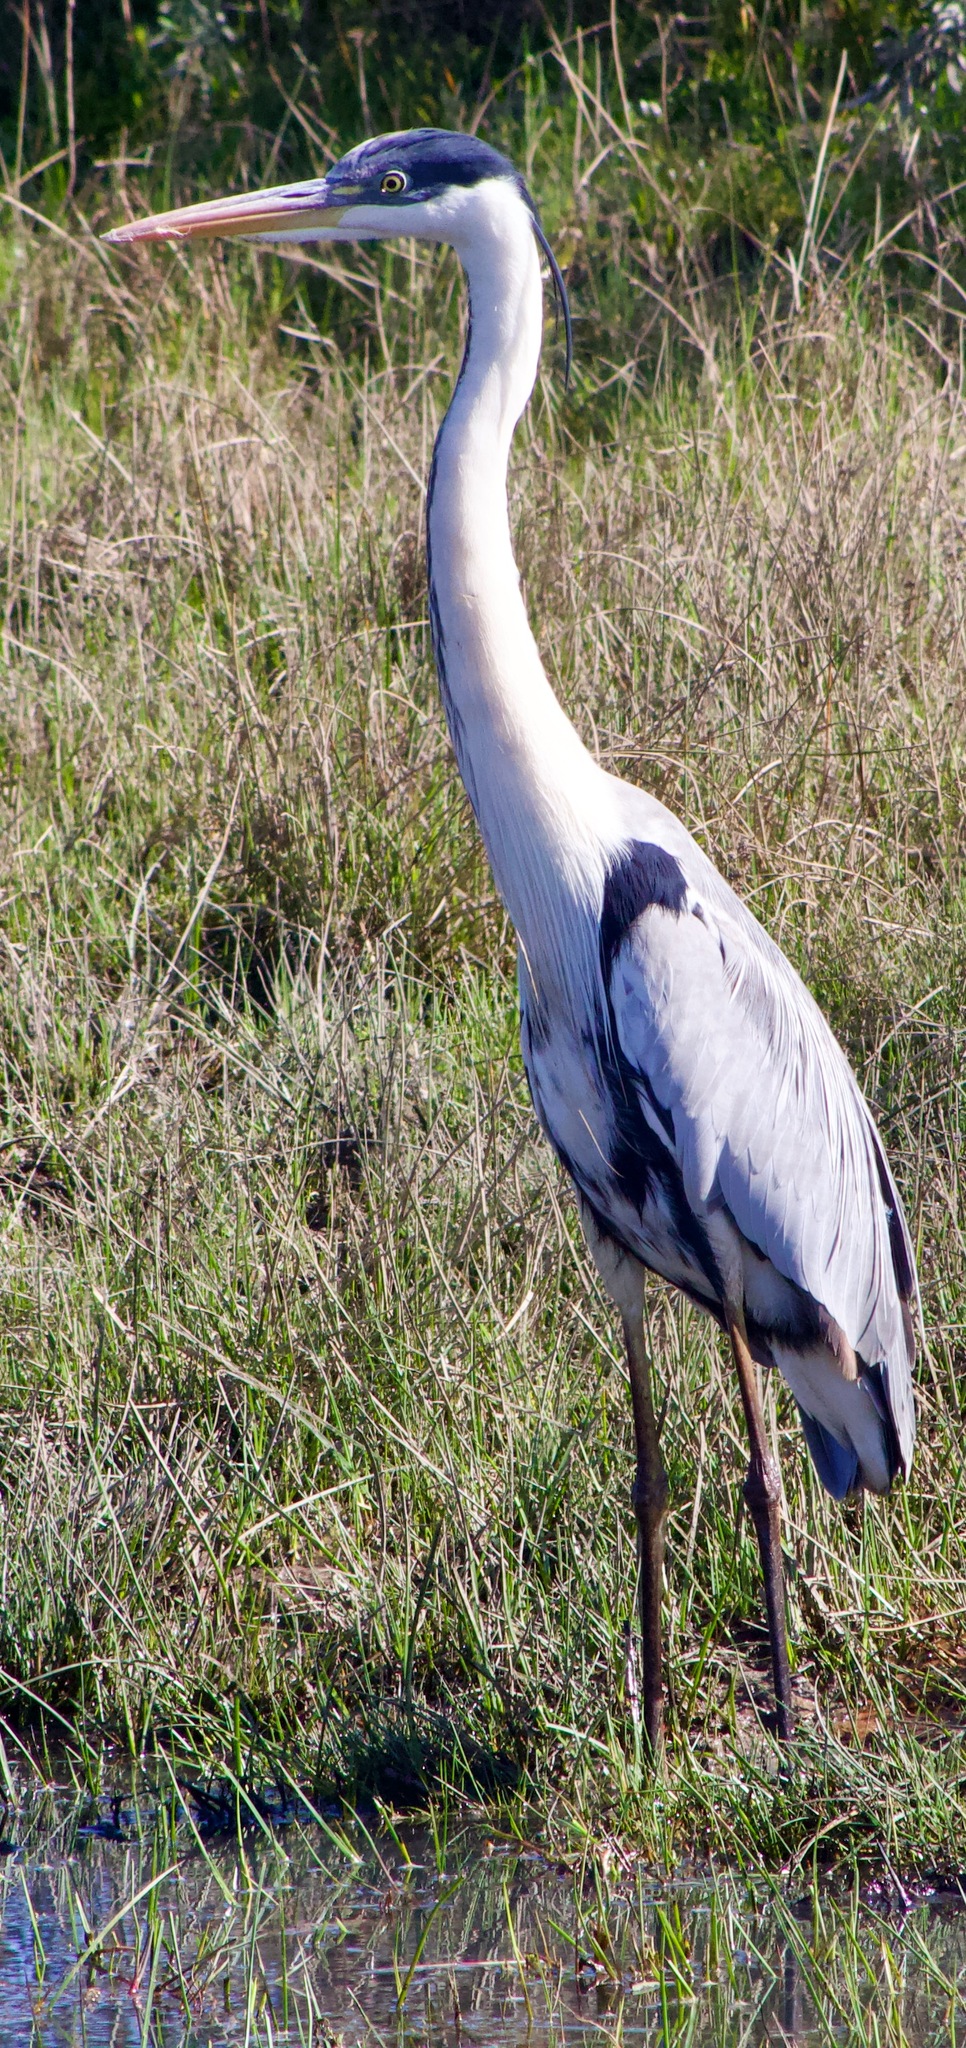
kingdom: Animalia
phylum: Chordata
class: Aves
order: Pelecaniformes
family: Ardeidae
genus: Ardea
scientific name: Ardea cocoi
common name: Cocoi heron
